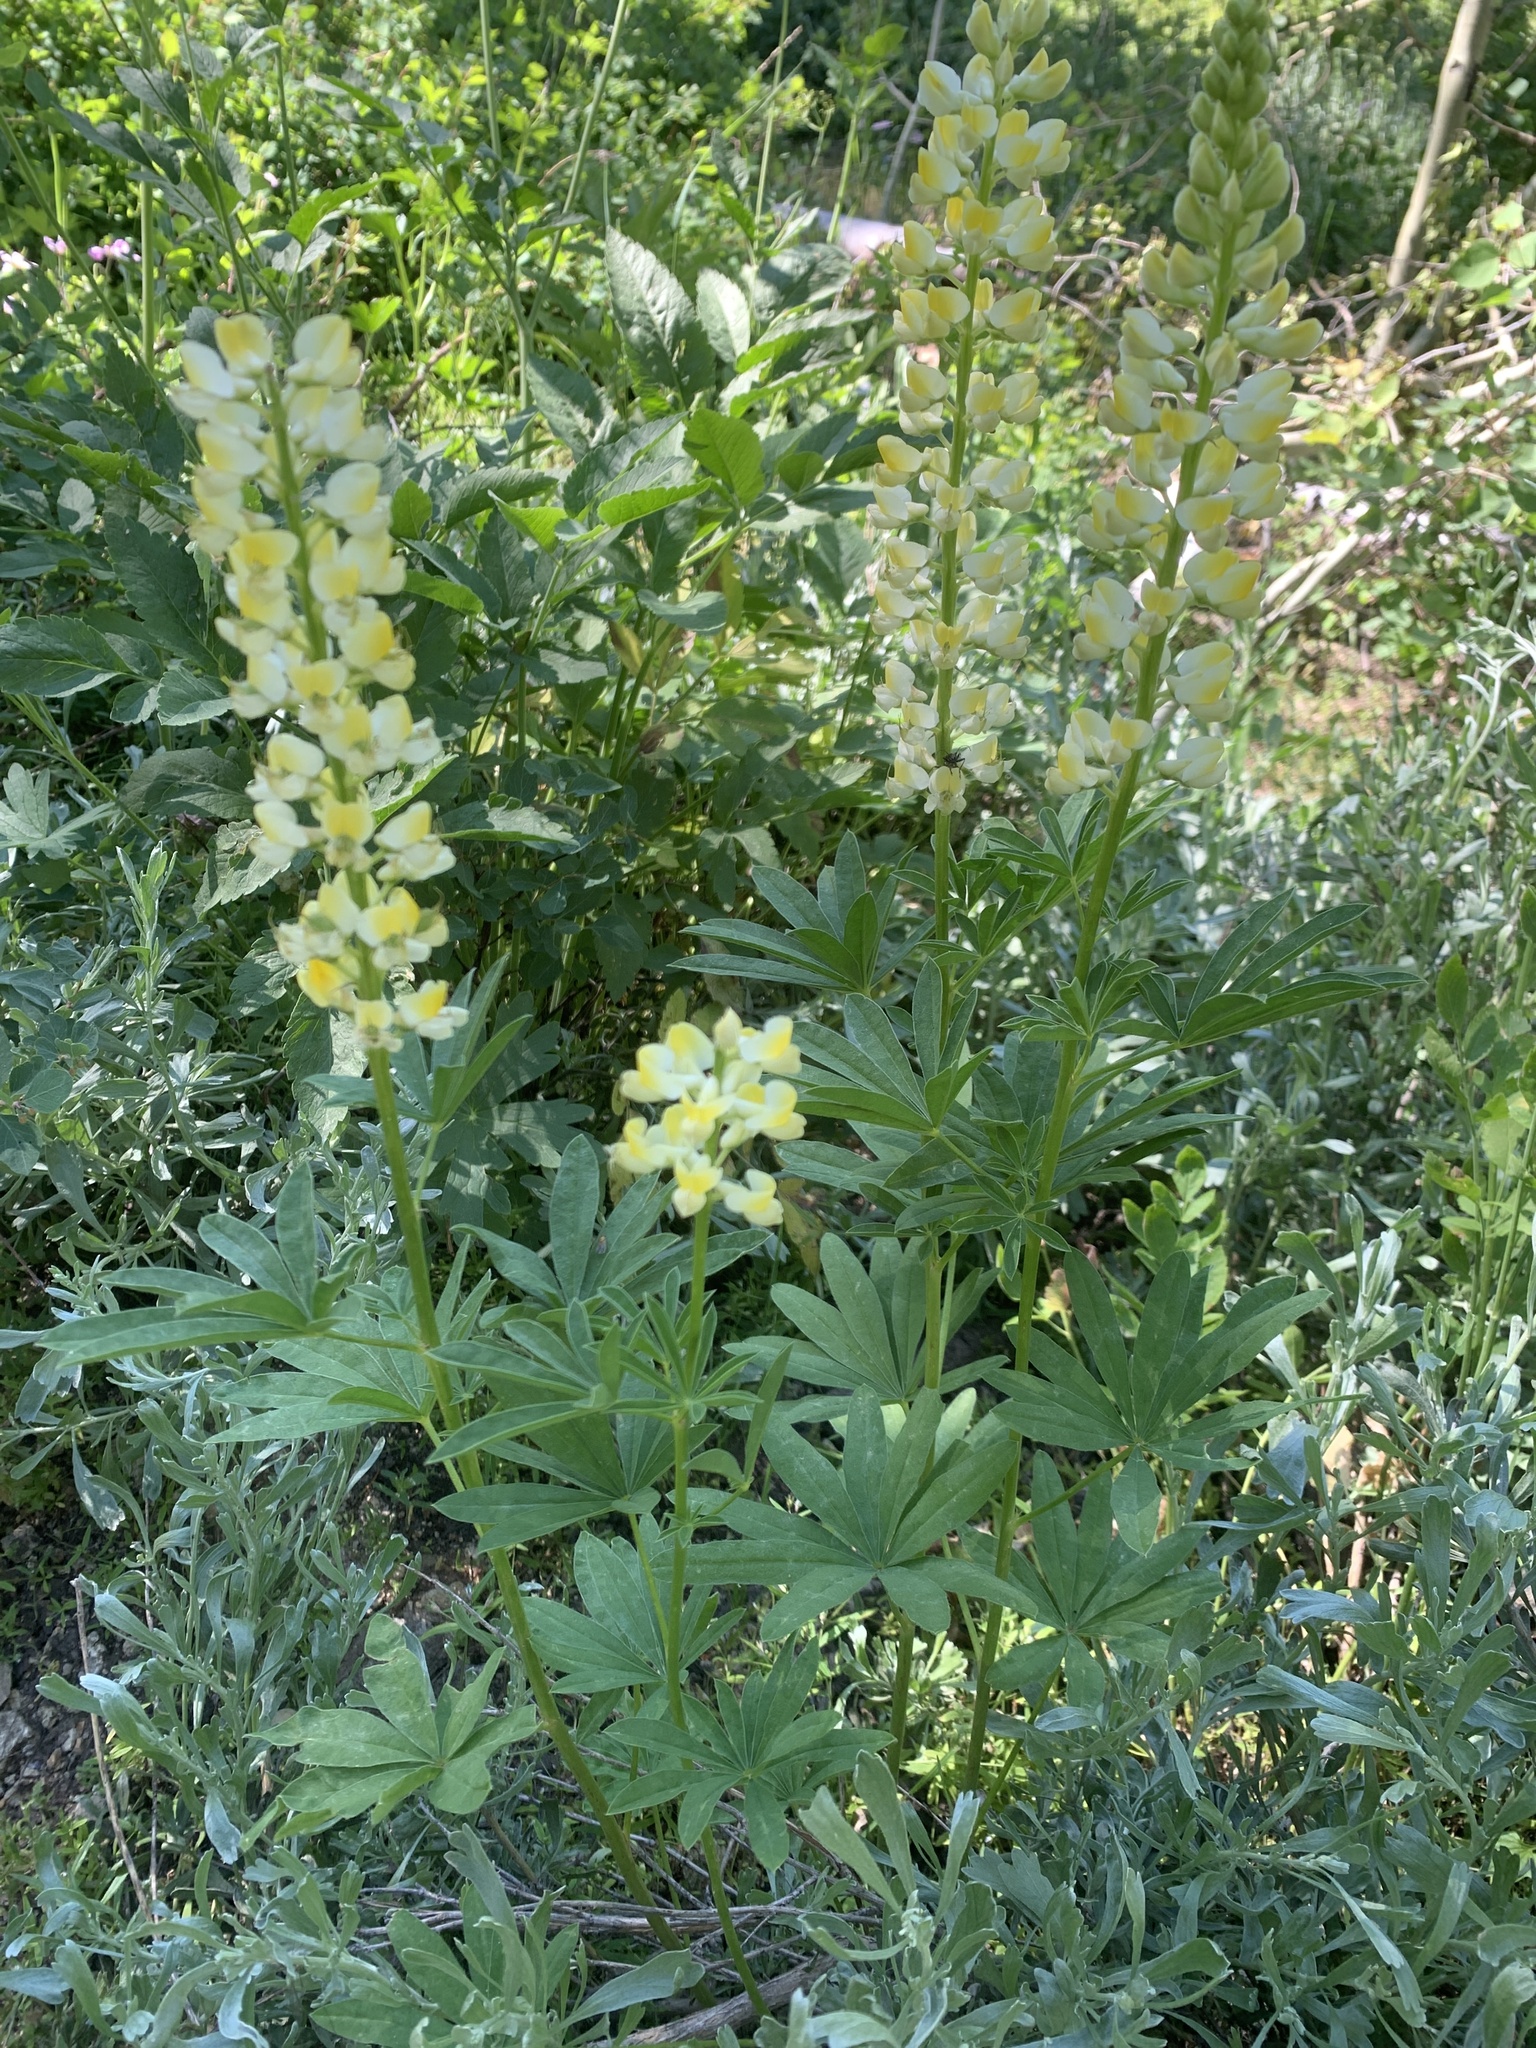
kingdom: Plantae
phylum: Tracheophyta
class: Magnoliopsida
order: Fabales
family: Fabaceae
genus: Lupinus
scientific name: Lupinus arbustus
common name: Montana lupine
